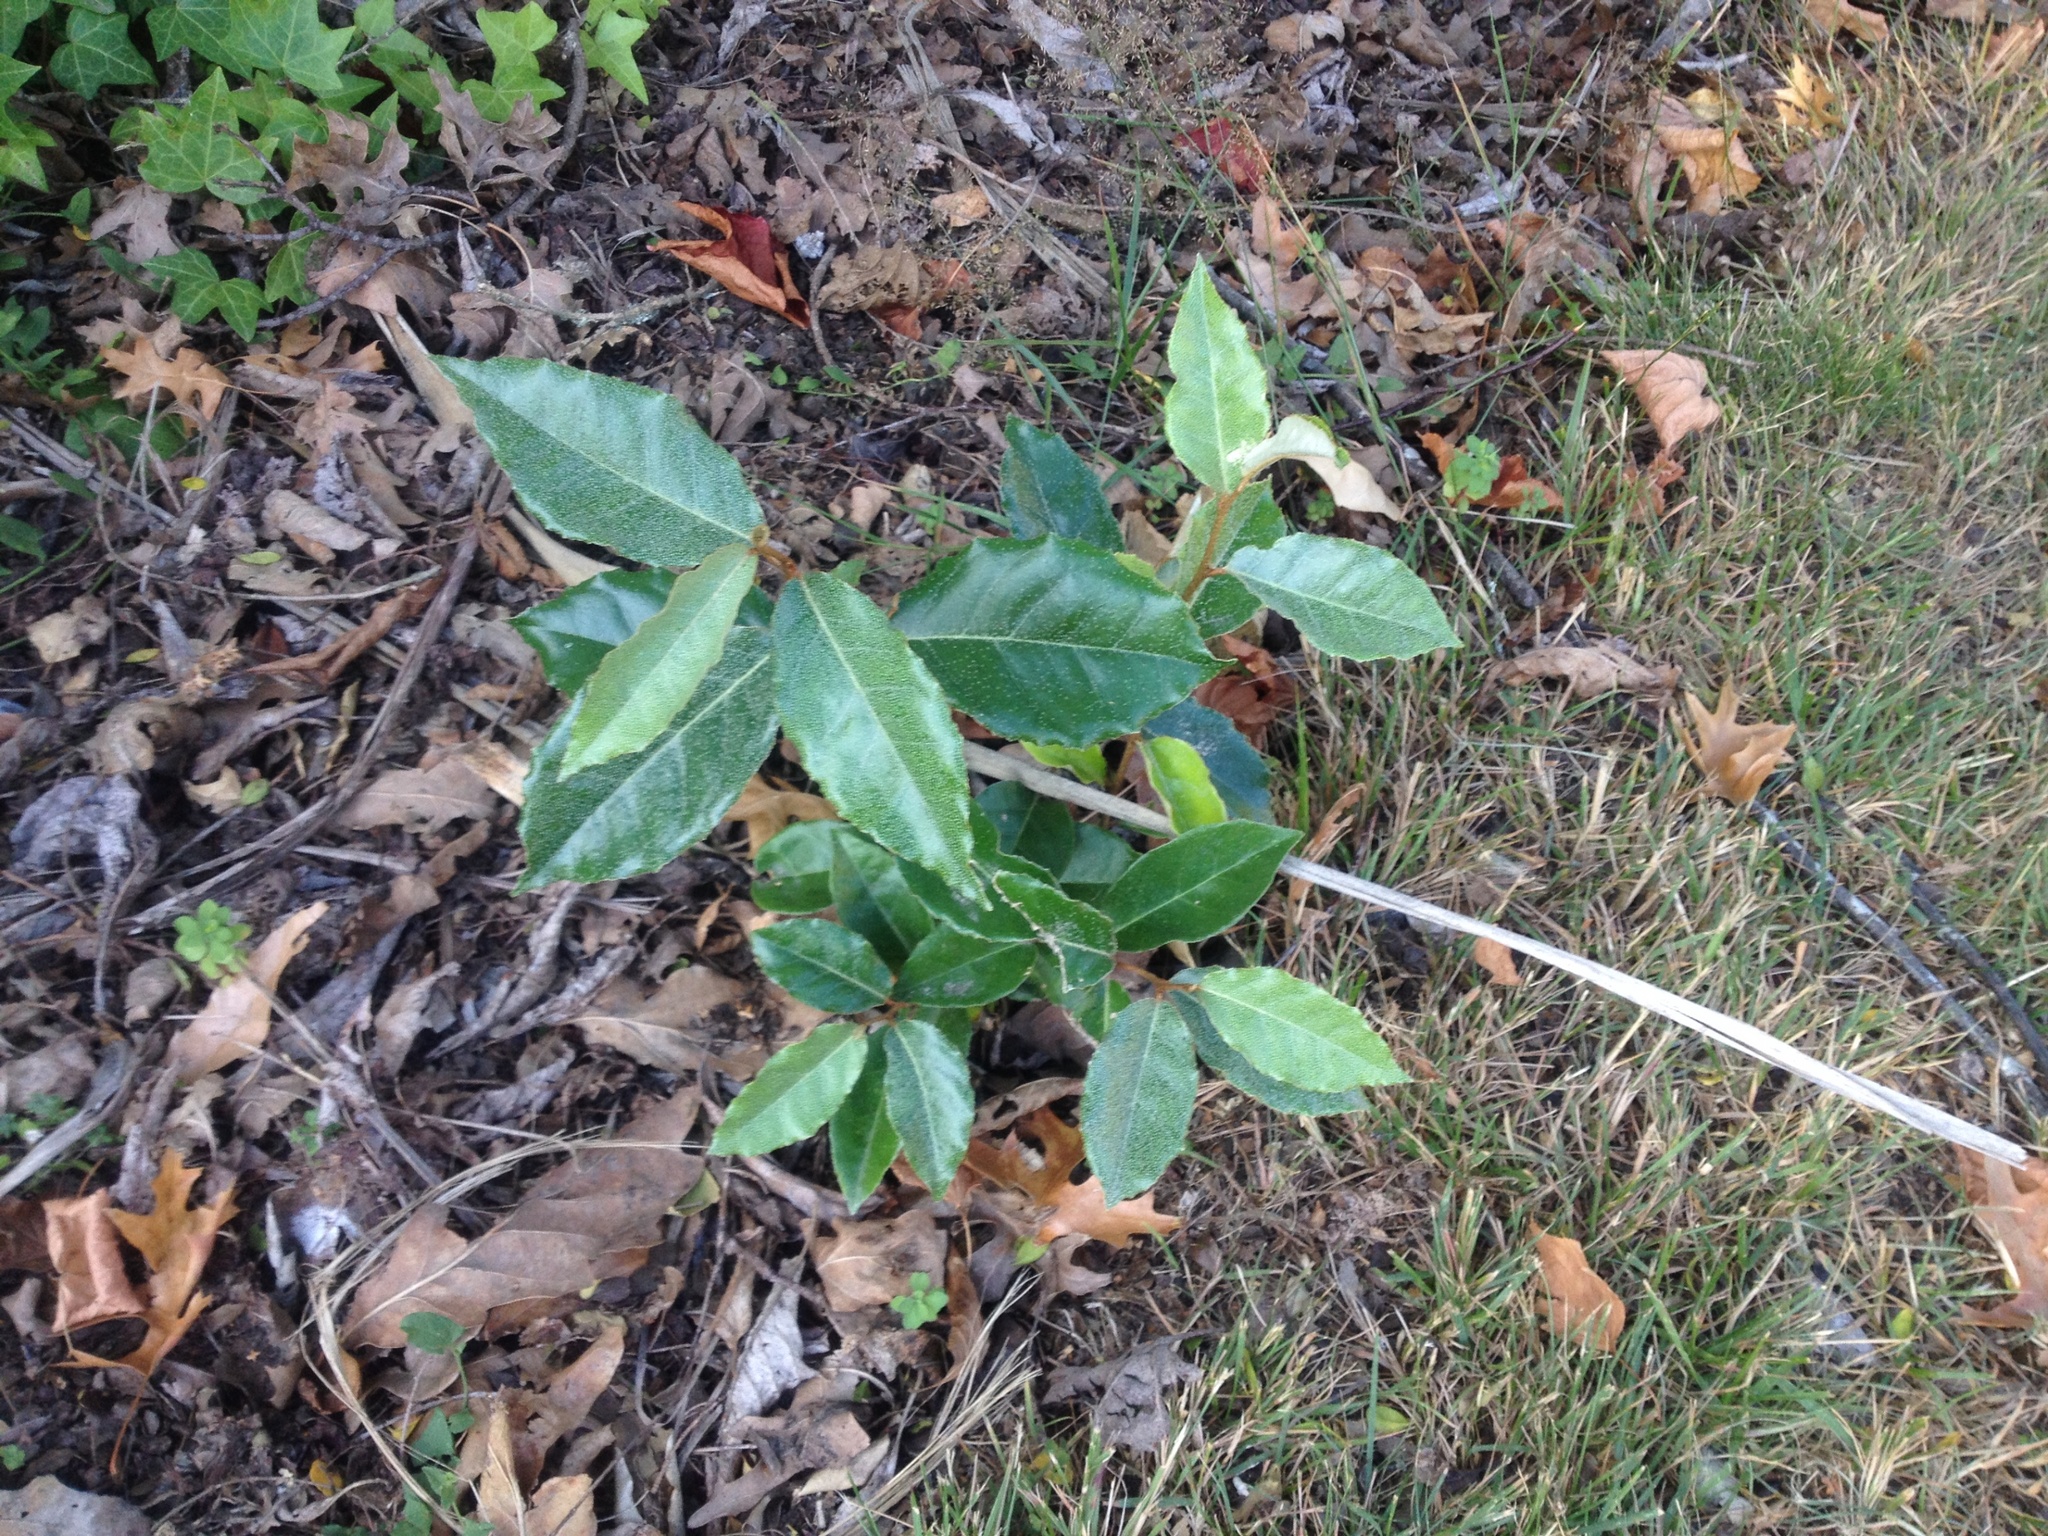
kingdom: Plantae
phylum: Tracheophyta
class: Magnoliopsida
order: Rosales
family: Elaeagnaceae
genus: Elaeagnus
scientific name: Elaeagnus reflexa
